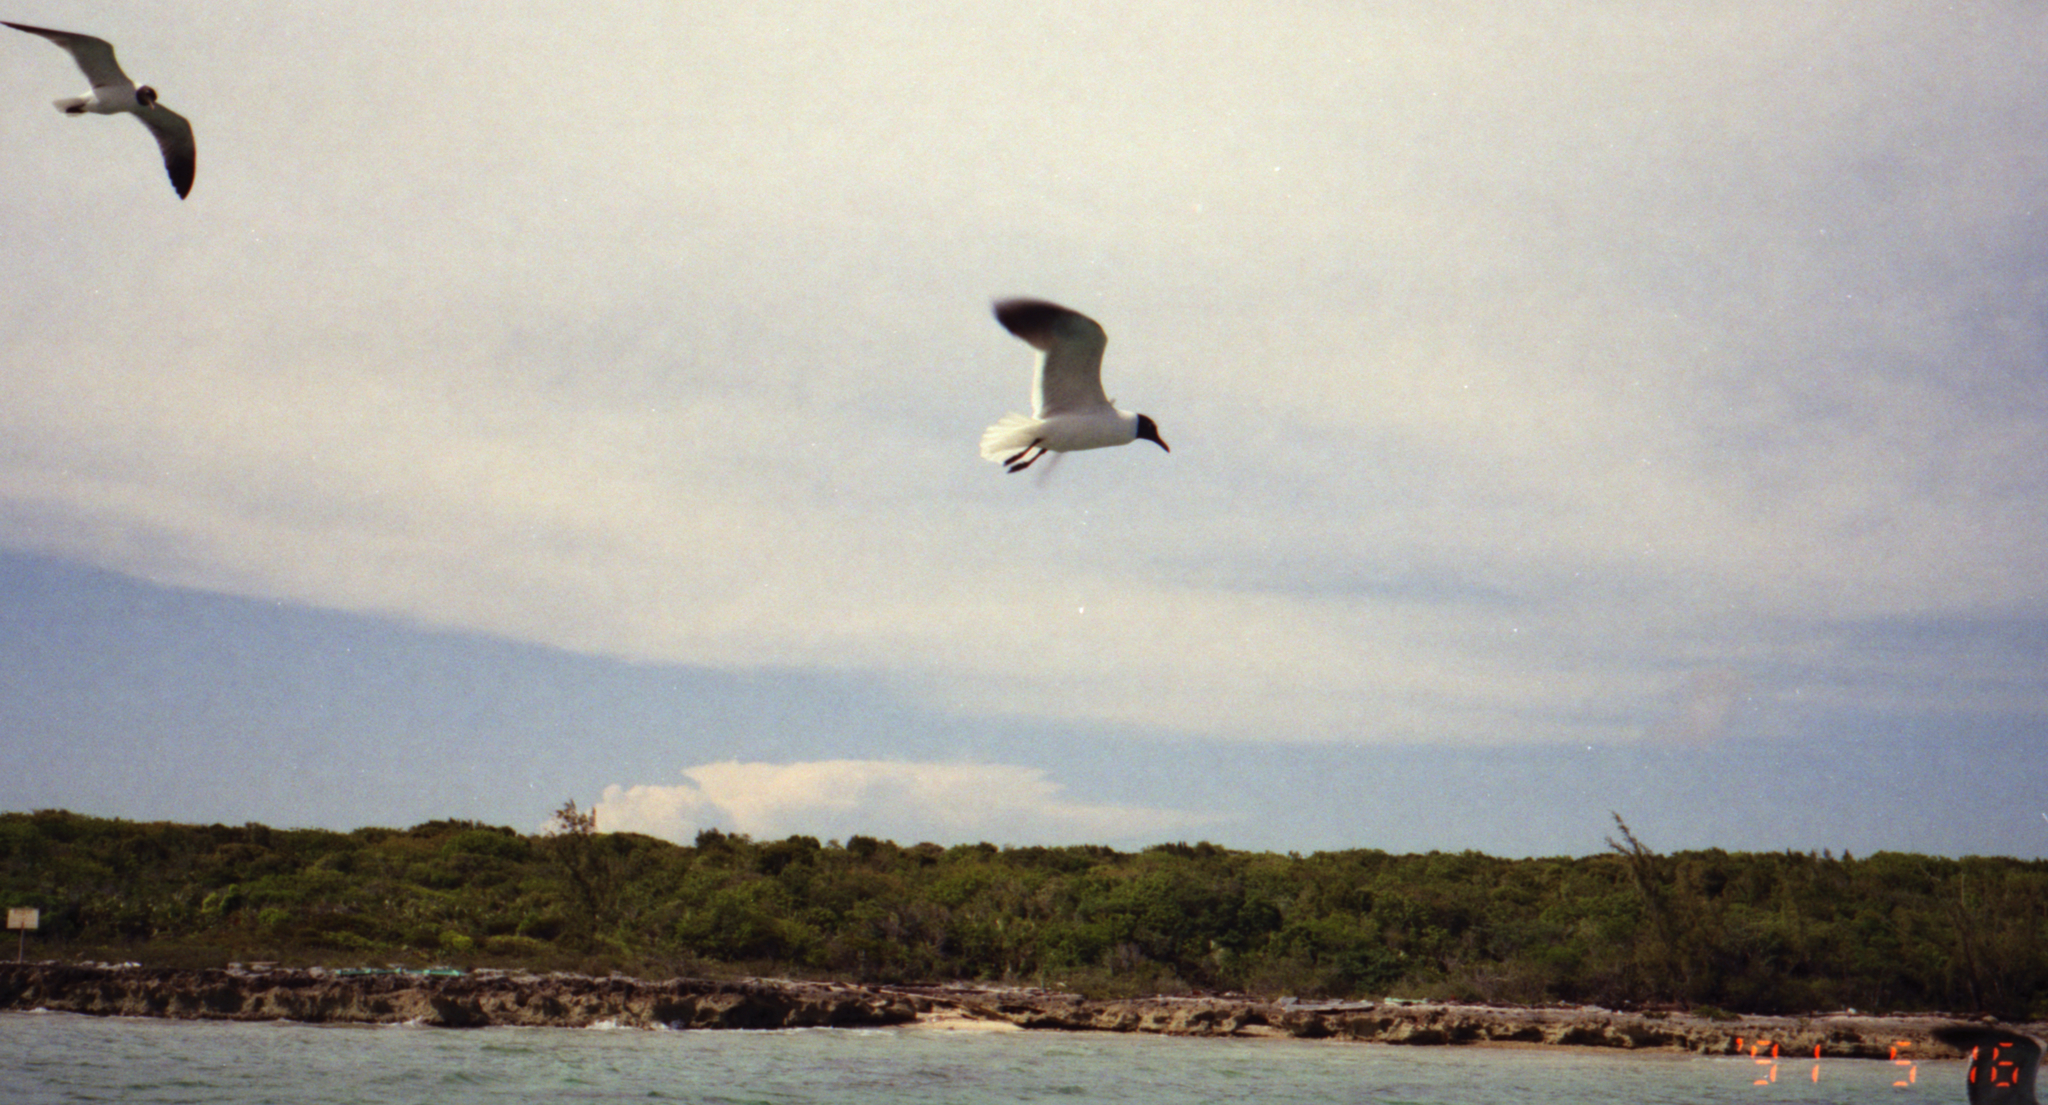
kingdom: Animalia
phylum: Chordata
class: Aves
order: Charadriiformes
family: Laridae
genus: Leucophaeus
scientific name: Leucophaeus atricilla
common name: Laughing gull
